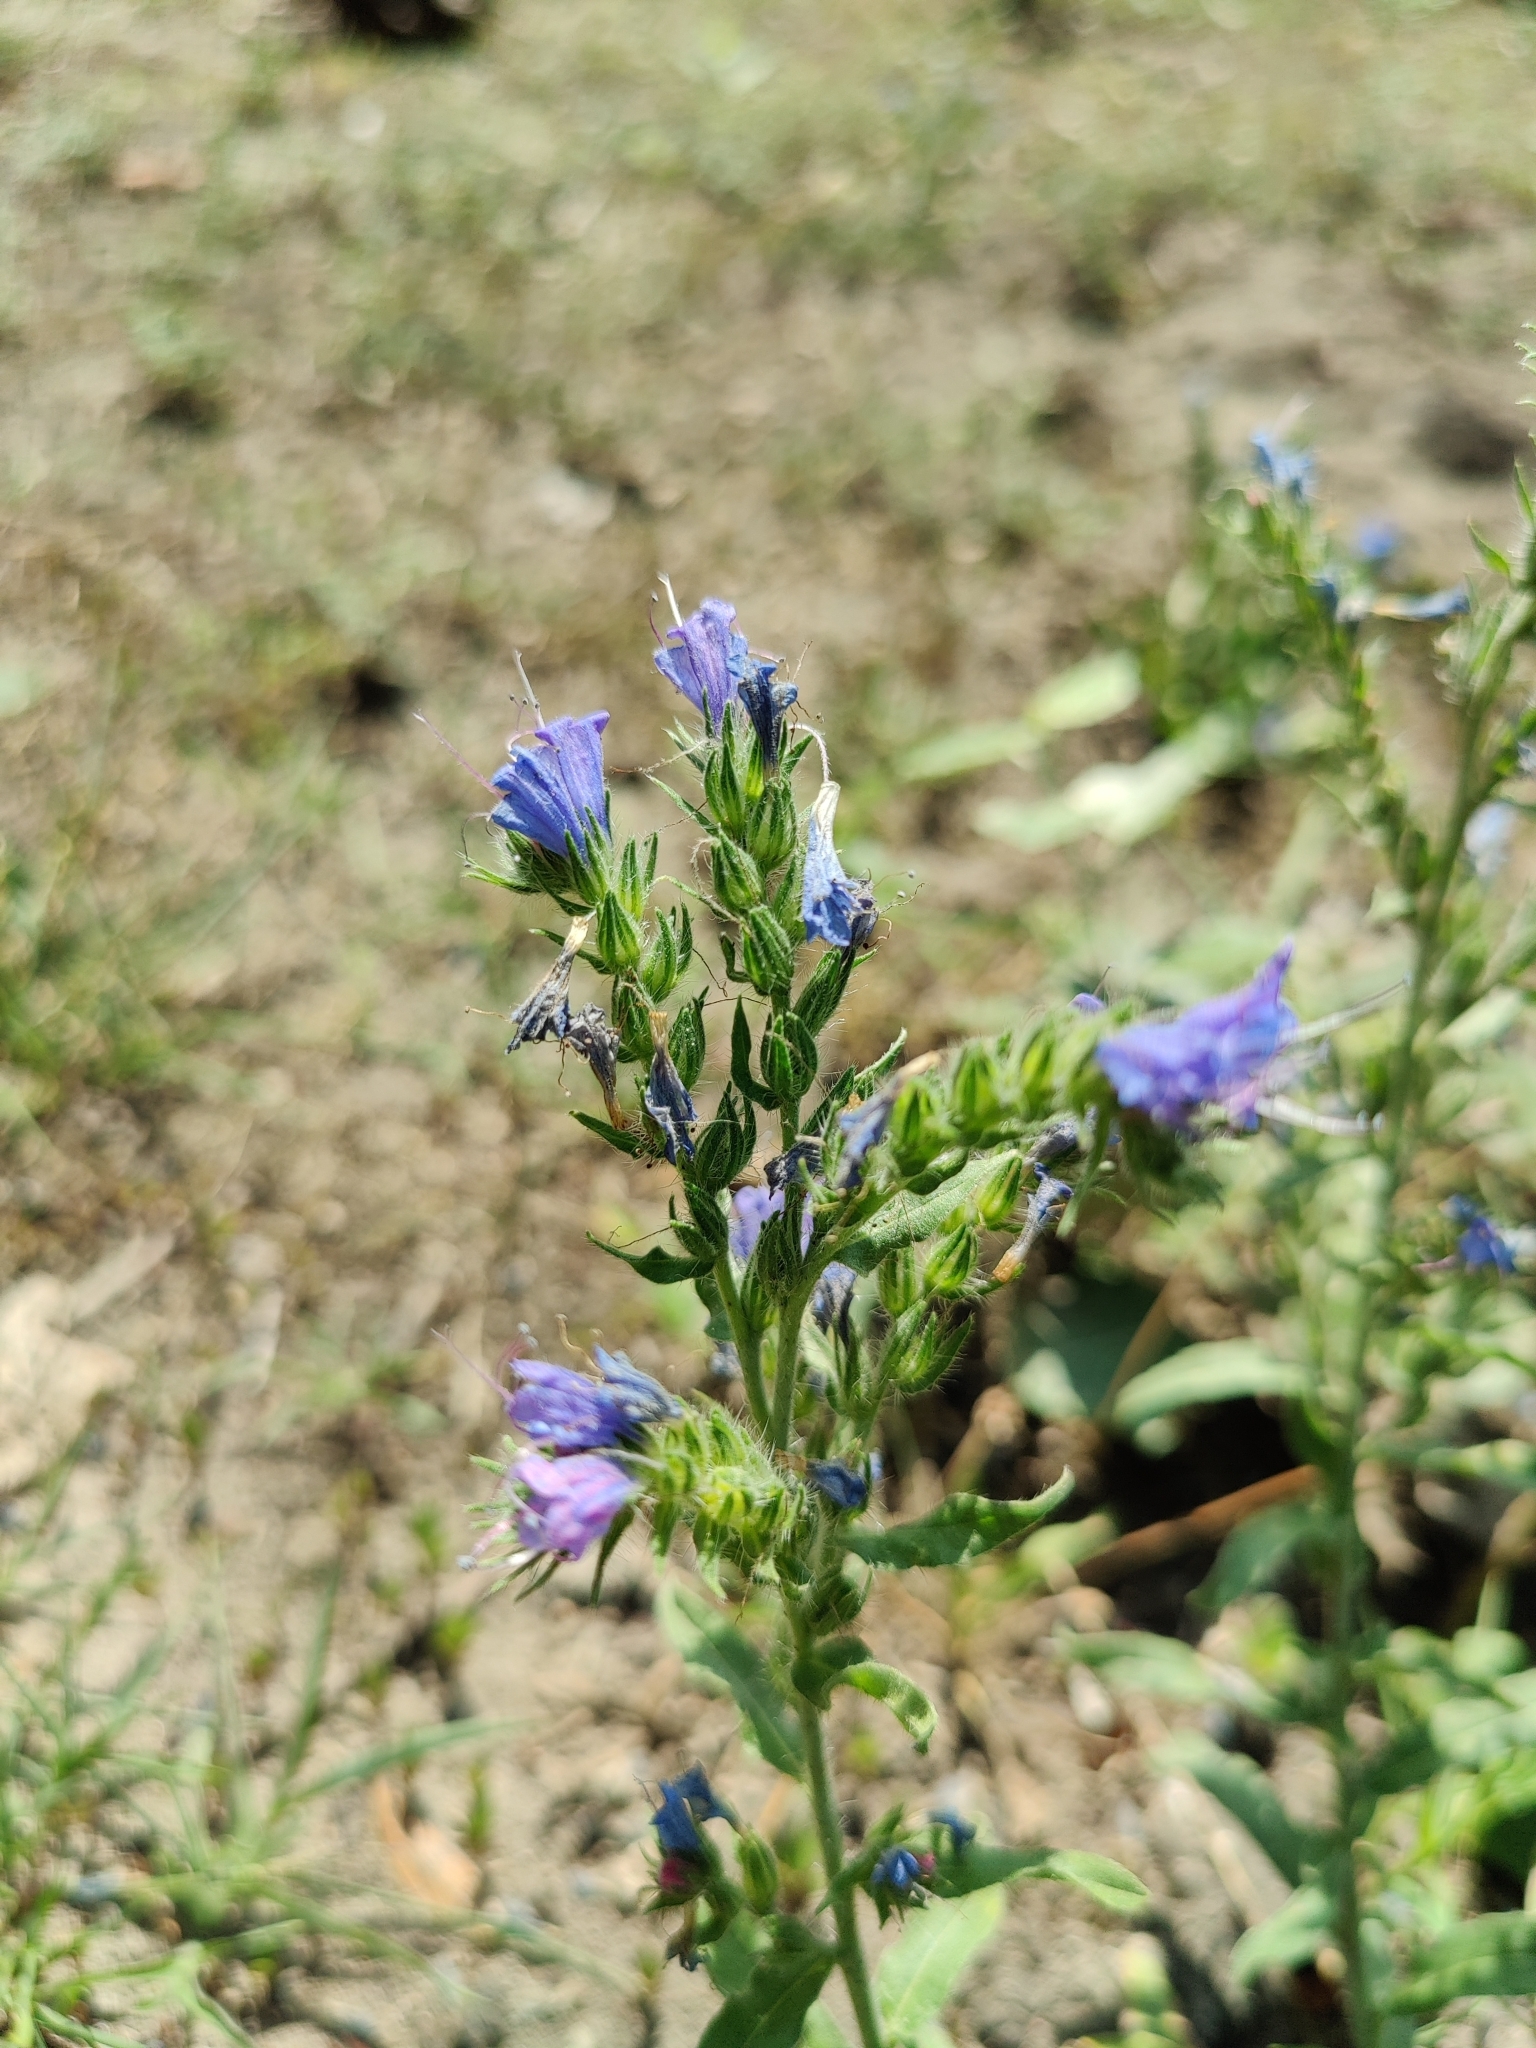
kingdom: Plantae
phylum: Tracheophyta
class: Magnoliopsida
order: Boraginales
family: Boraginaceae
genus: Echium
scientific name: Echium vulgare
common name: Common viper's bugloss
